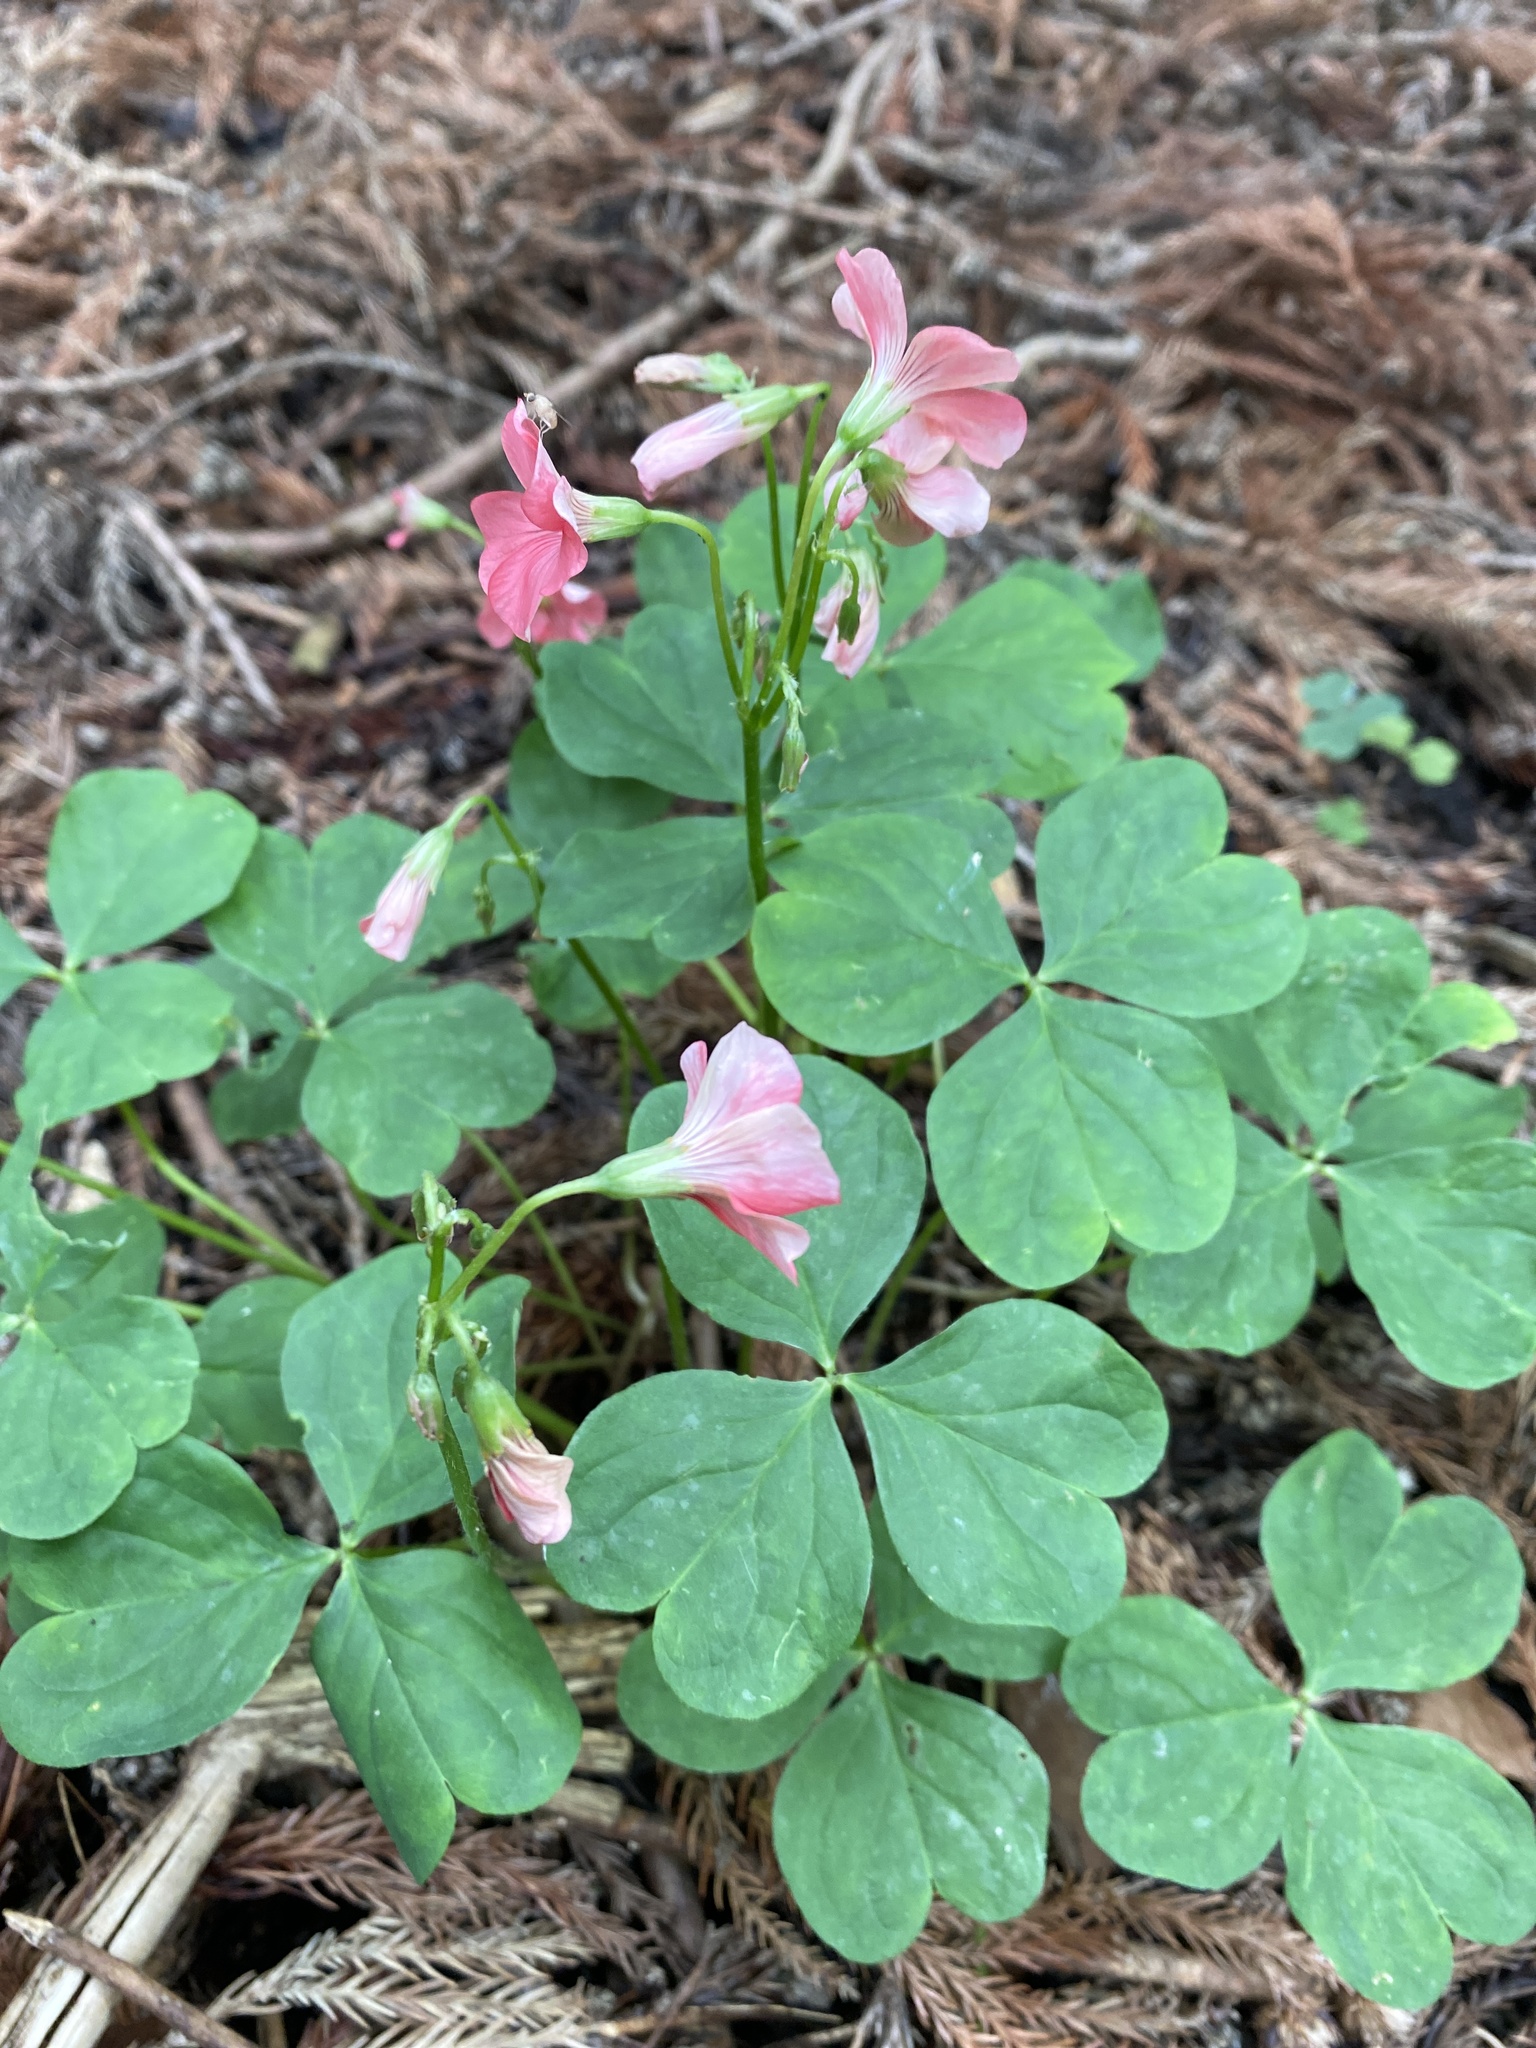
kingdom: Plantae
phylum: Tracheophyta
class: Magnoliopsida
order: Oxalidales
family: Oxalidaceae
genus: Oxalis
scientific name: Oxalis debilis
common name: Large-flowered pink-sorrel
